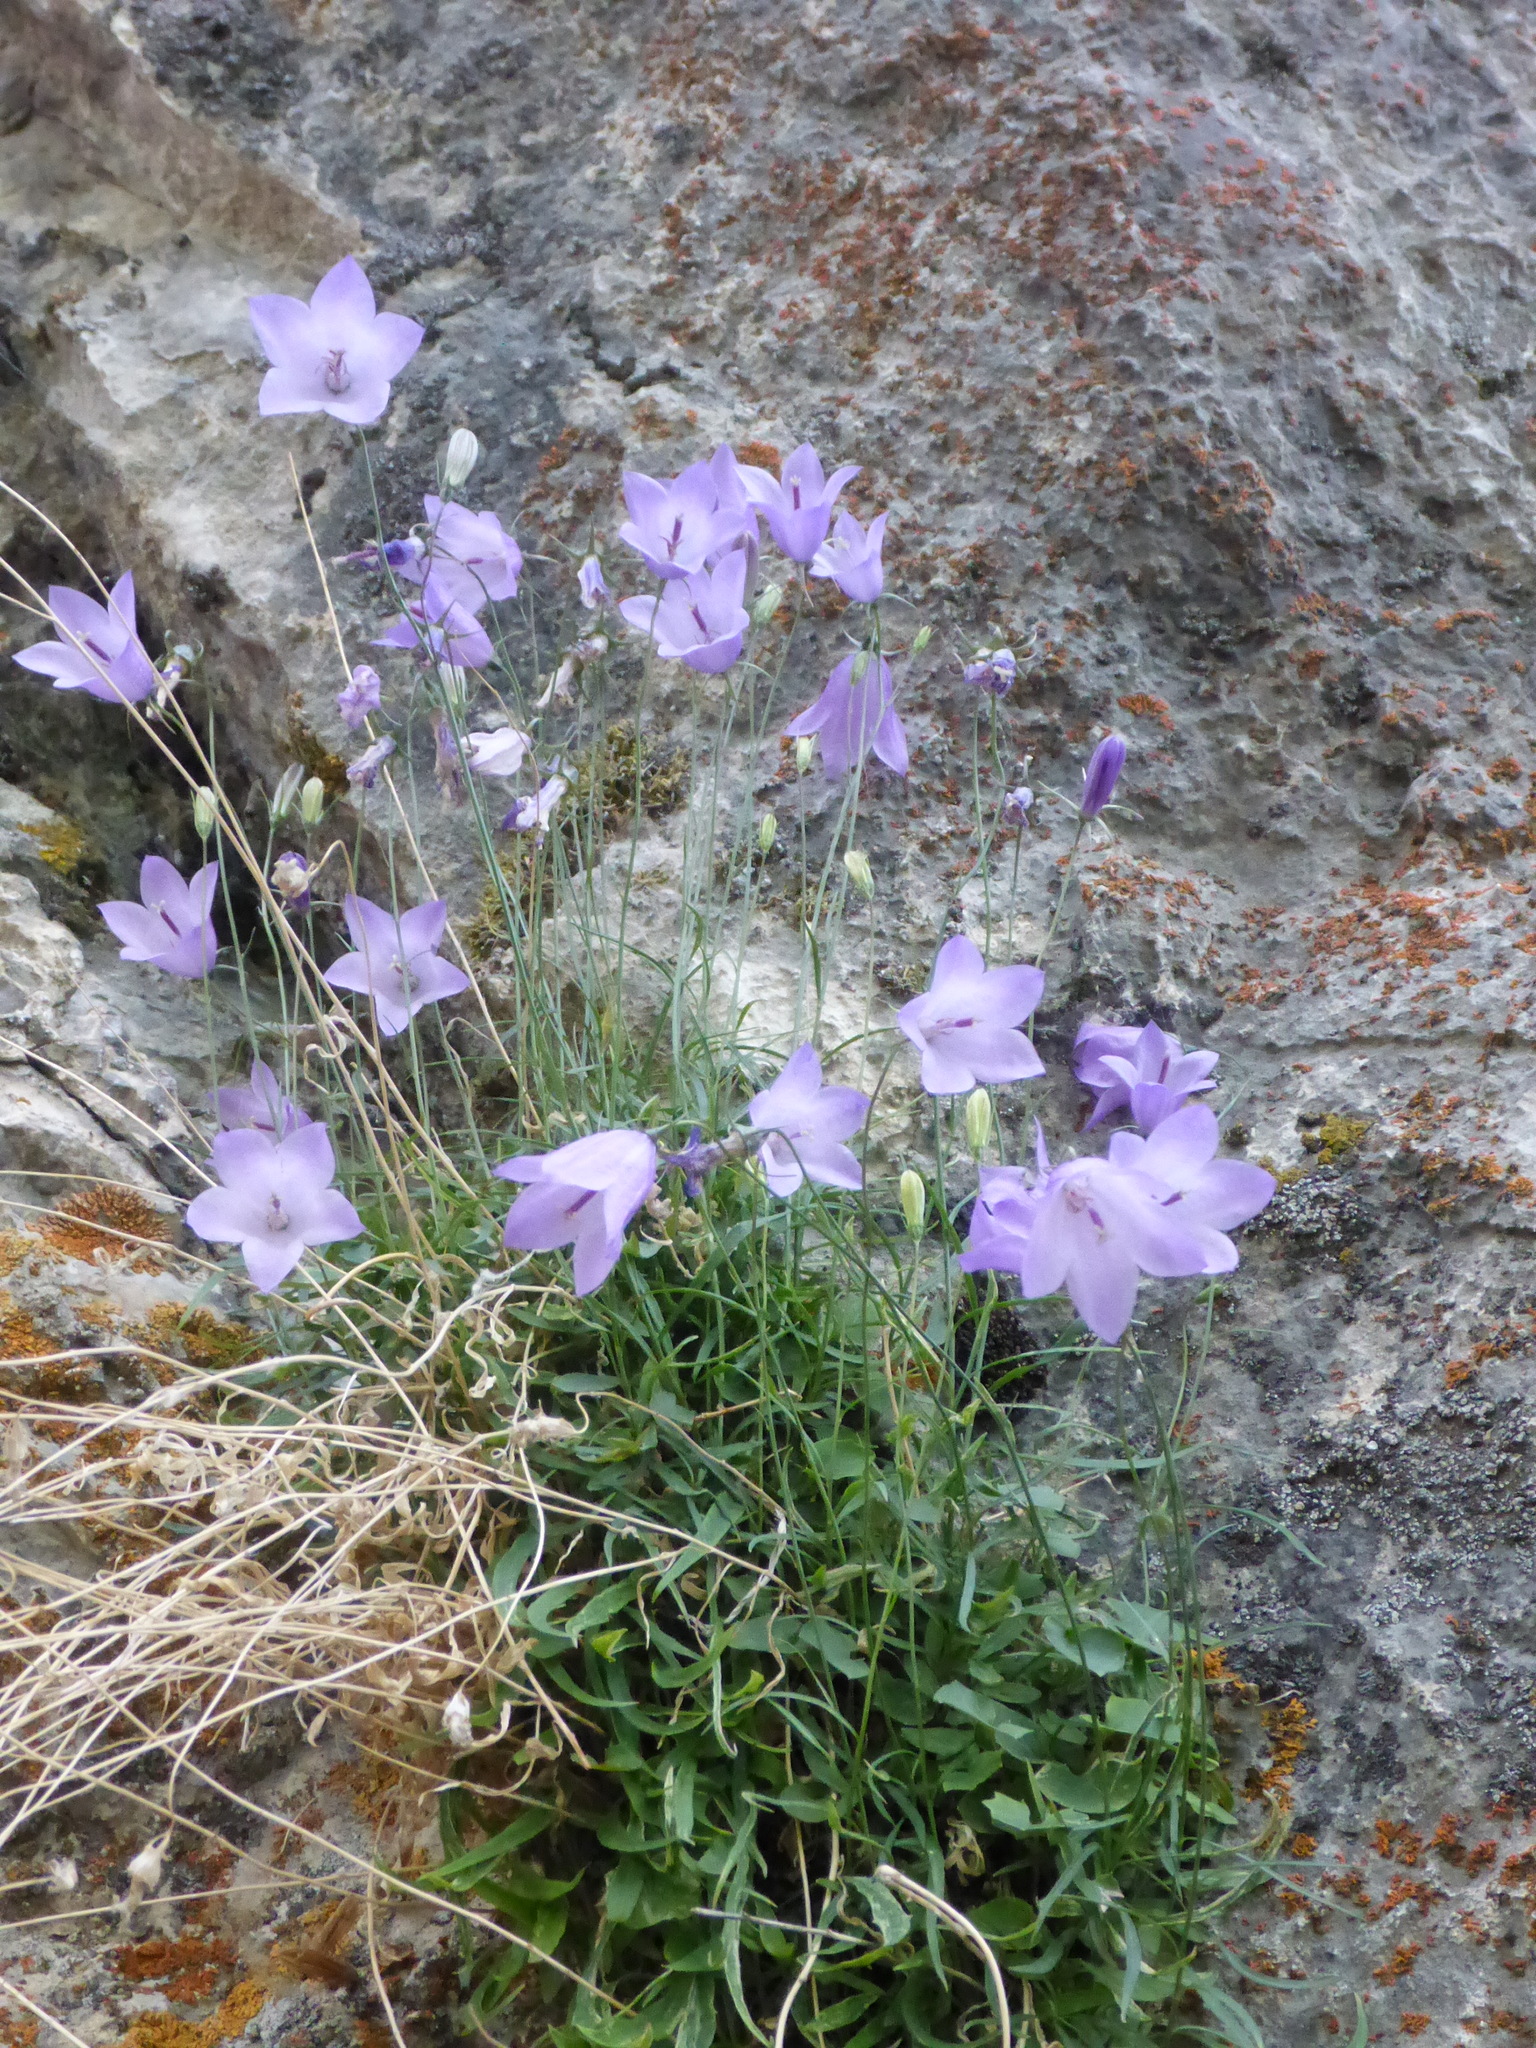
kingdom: Plantae
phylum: Tracheophyta
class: Magnoliopsida
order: Asterales
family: Campanulaceae
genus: Campanula
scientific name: Campanula alaskana
